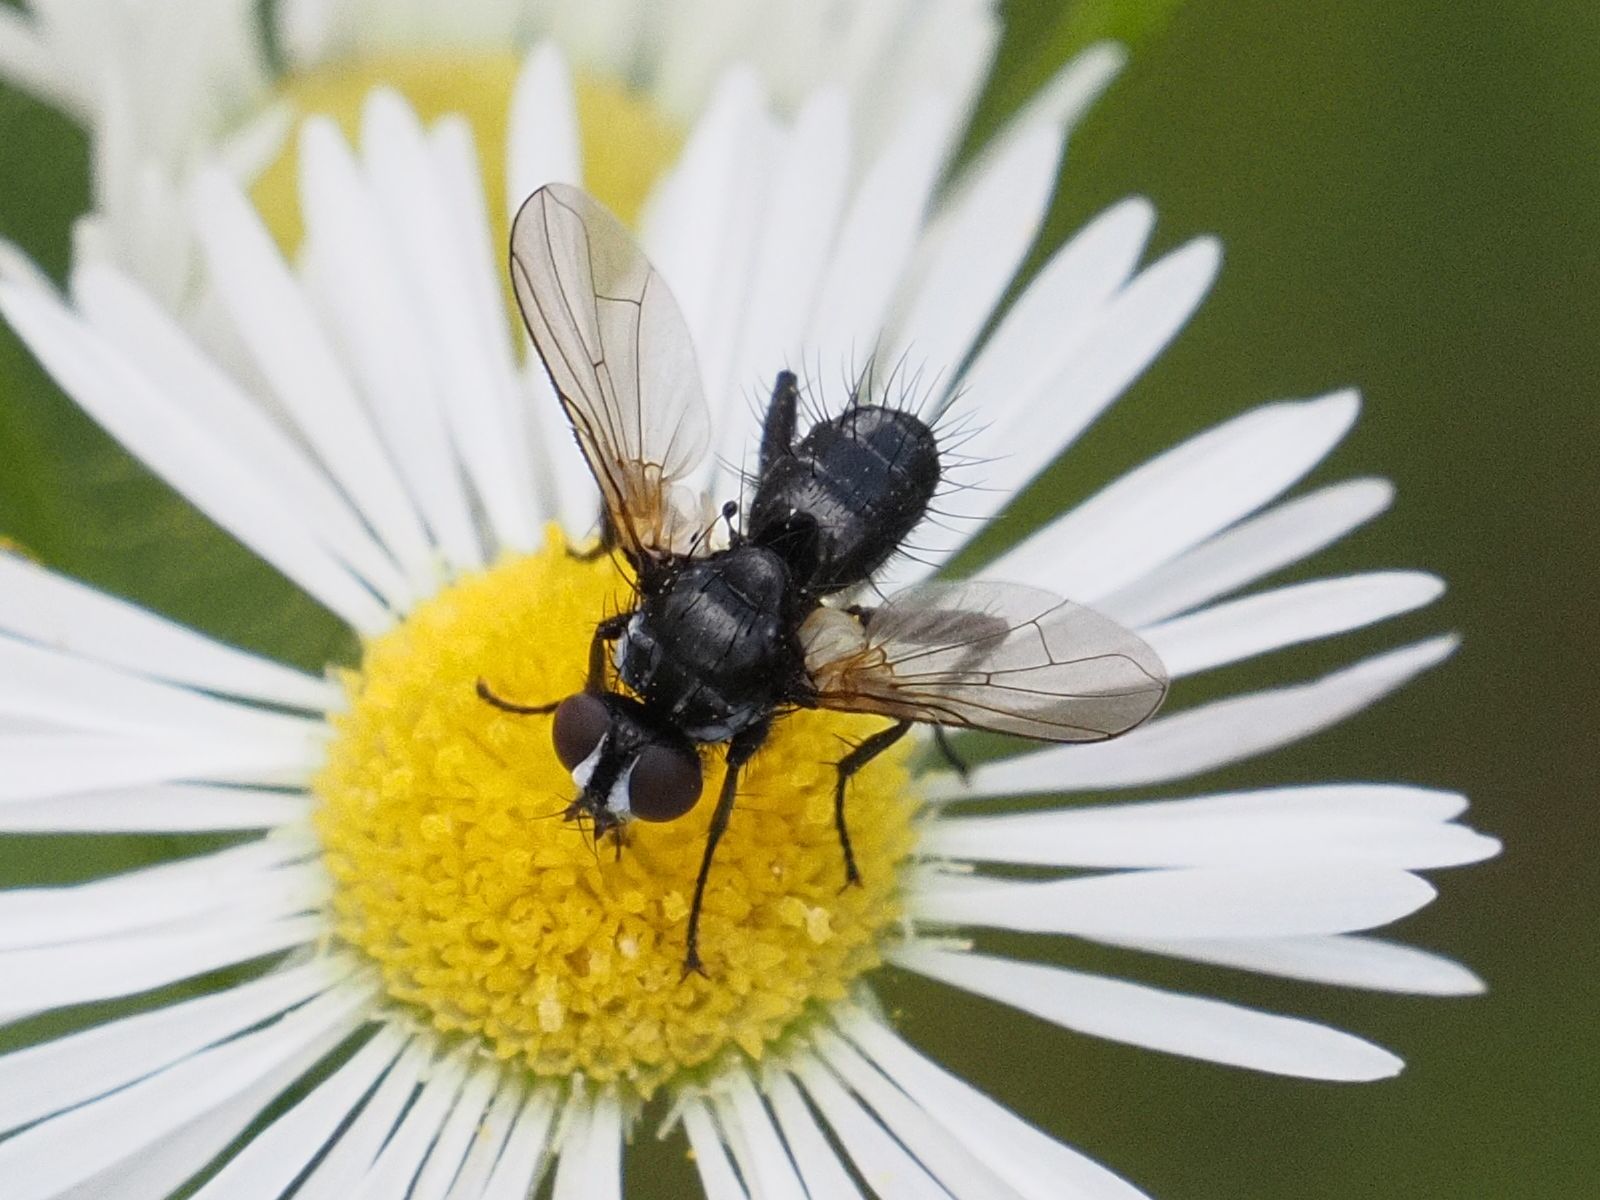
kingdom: Animalia
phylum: Arthropoda
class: Insecta
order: Diptera
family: Tachinidae
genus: Phania
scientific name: Phania funesta
